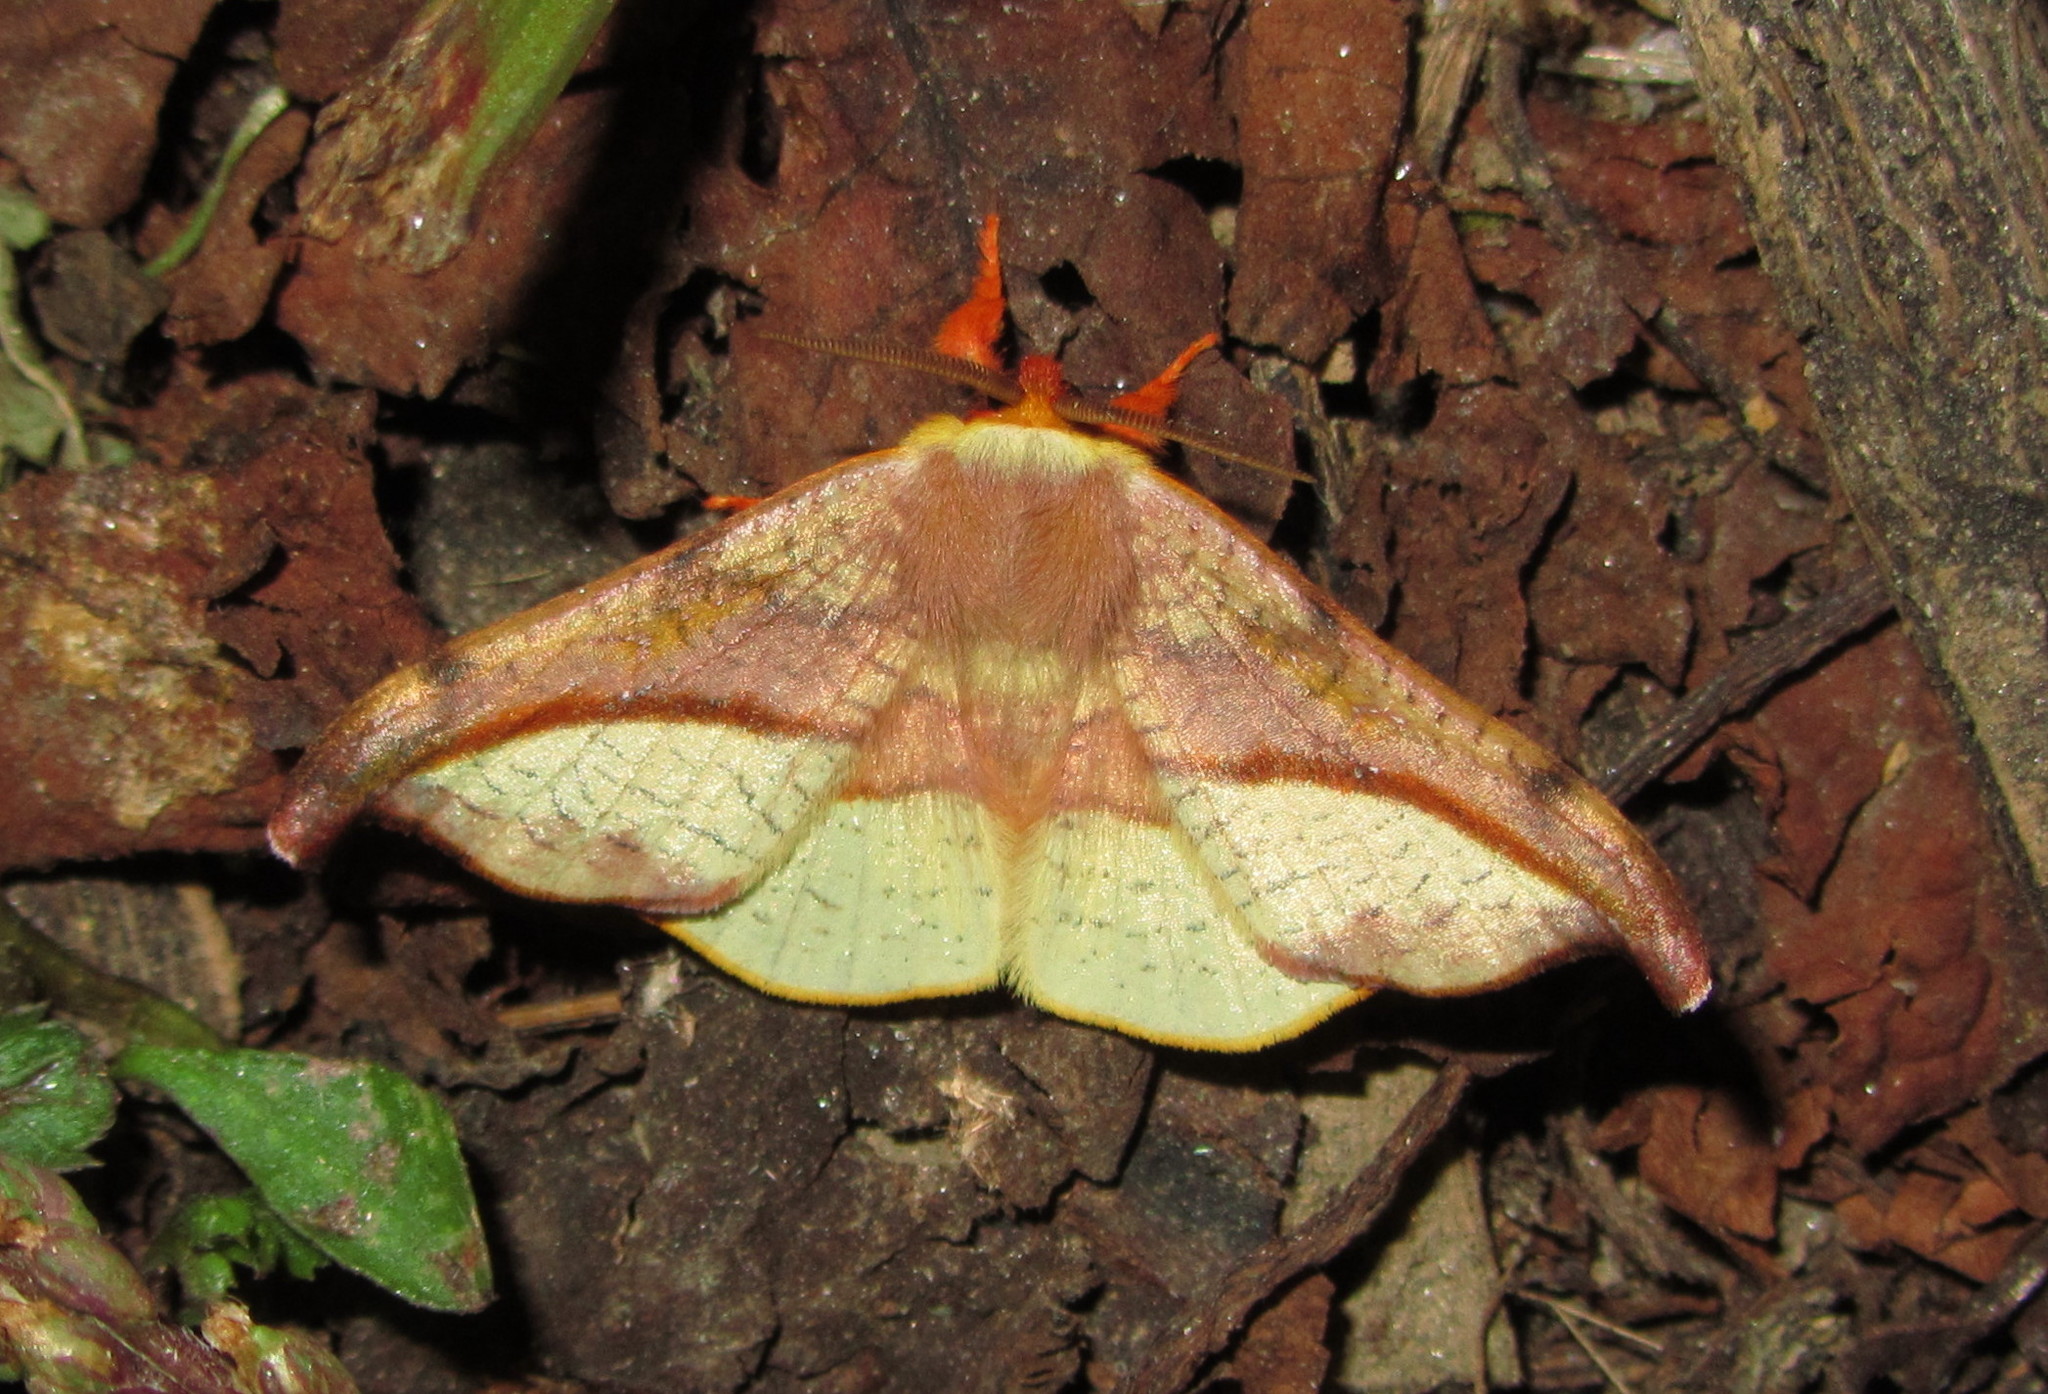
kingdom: Animalia
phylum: Arthropoda
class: Insecta
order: Lepidoptera
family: Drepanidae
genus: Oreta
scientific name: Oreta vatama
